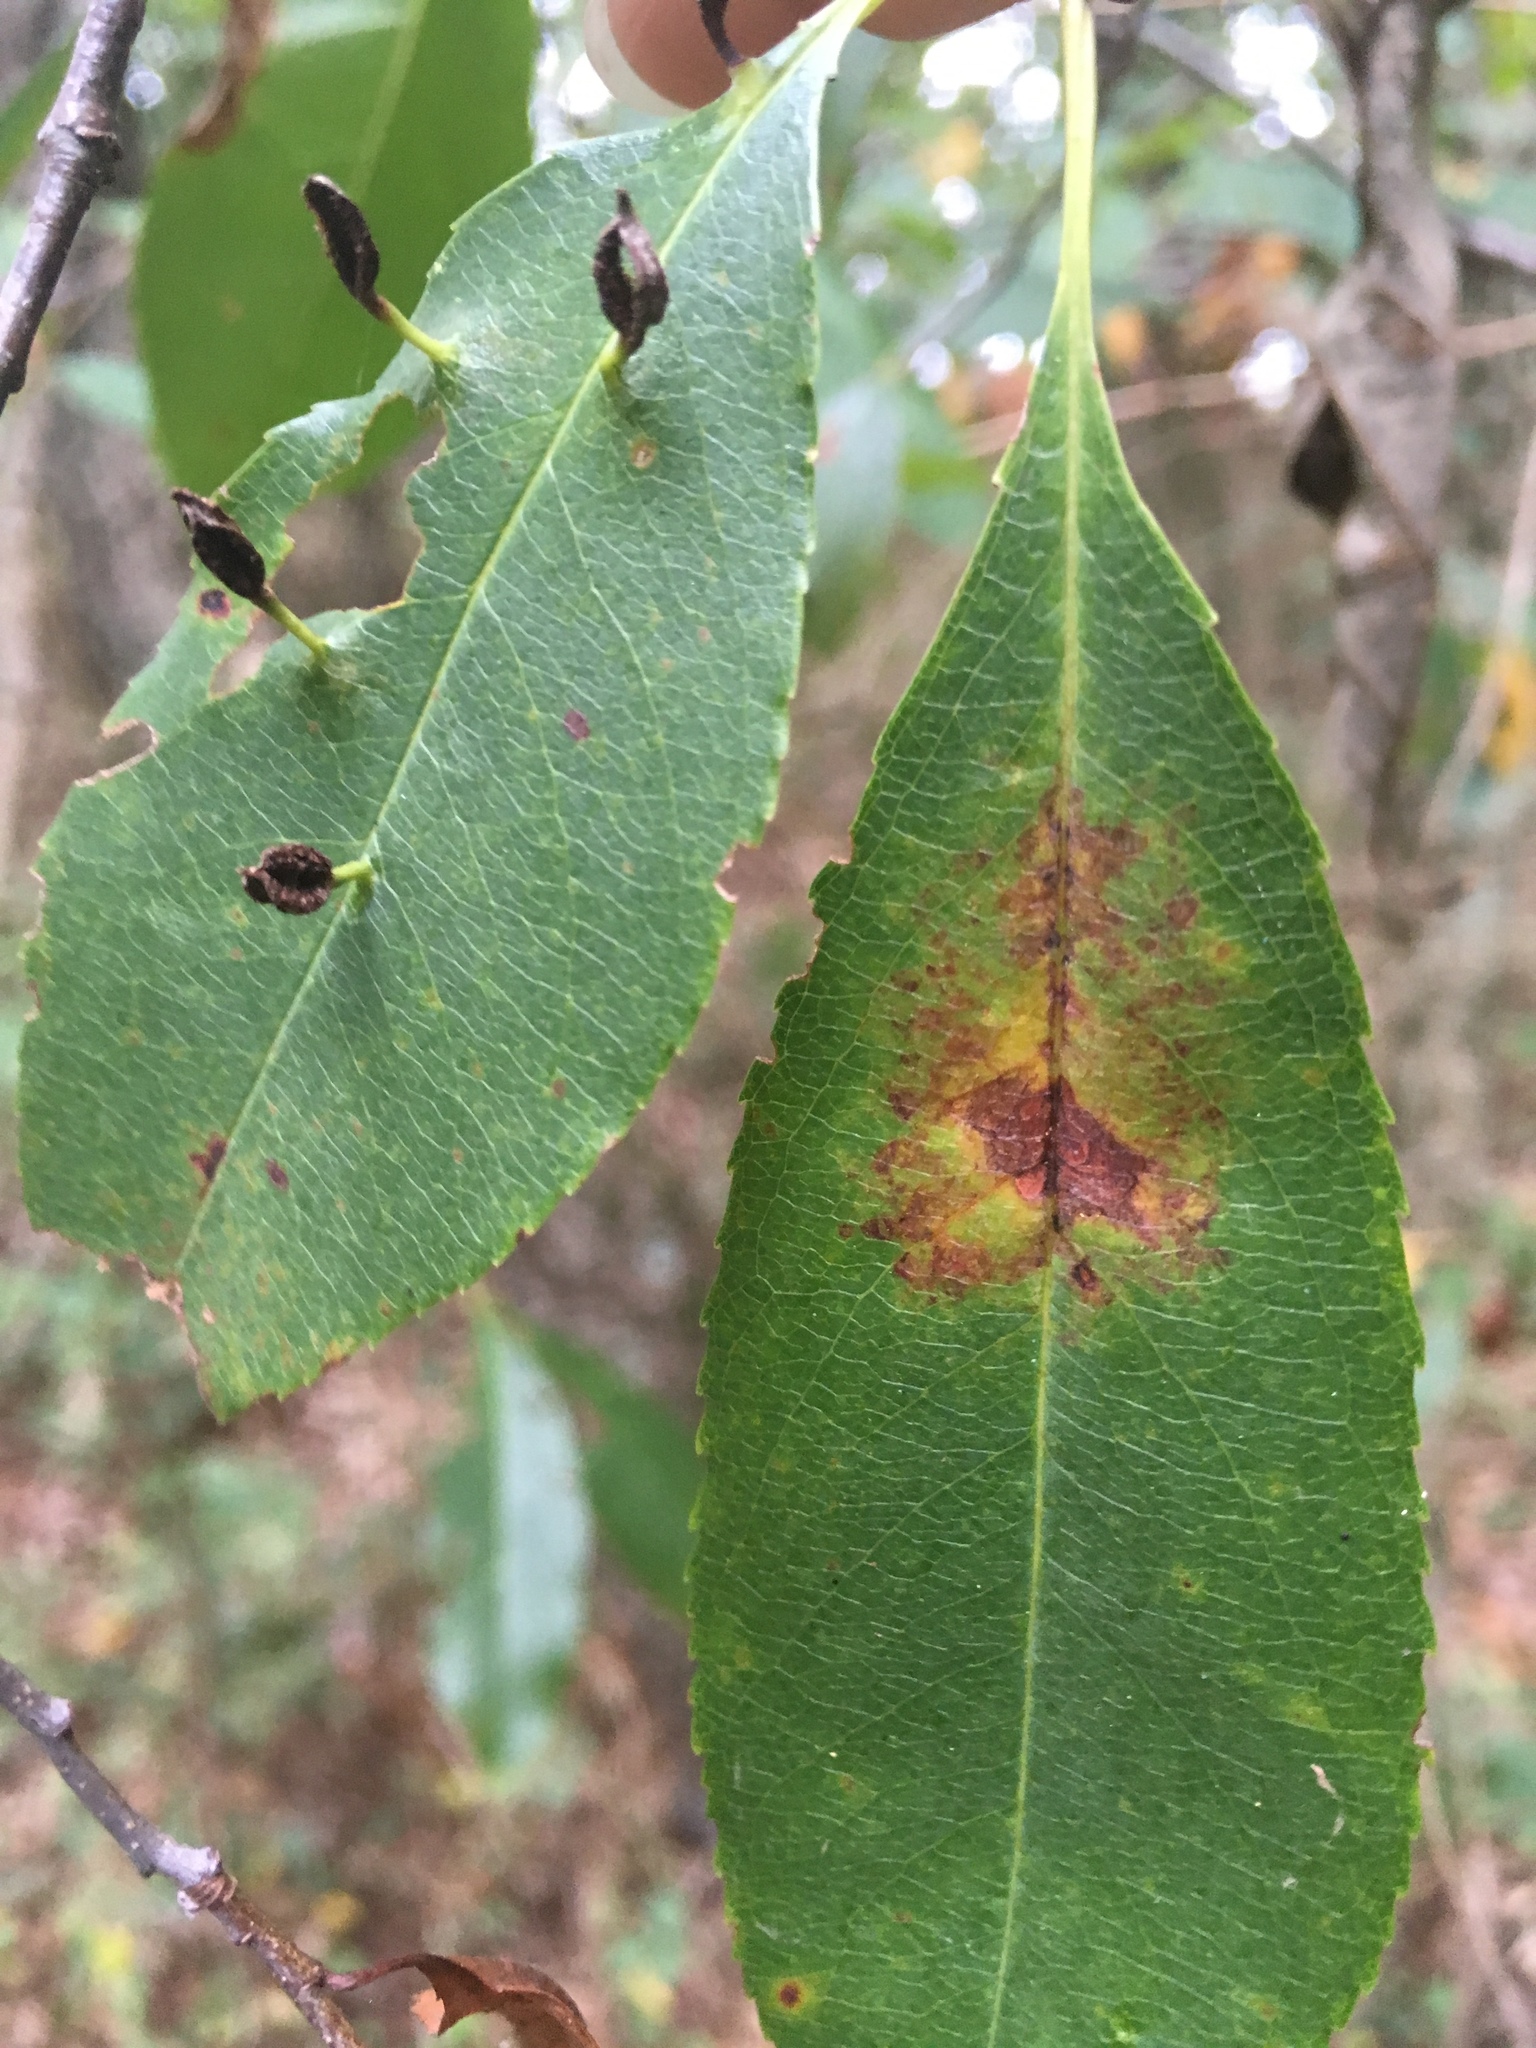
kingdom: Animalia
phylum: Arthropoda
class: Arachnida
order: Trombidiformes
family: Eriophyidae
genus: Eriophyes
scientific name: Eriophyes
